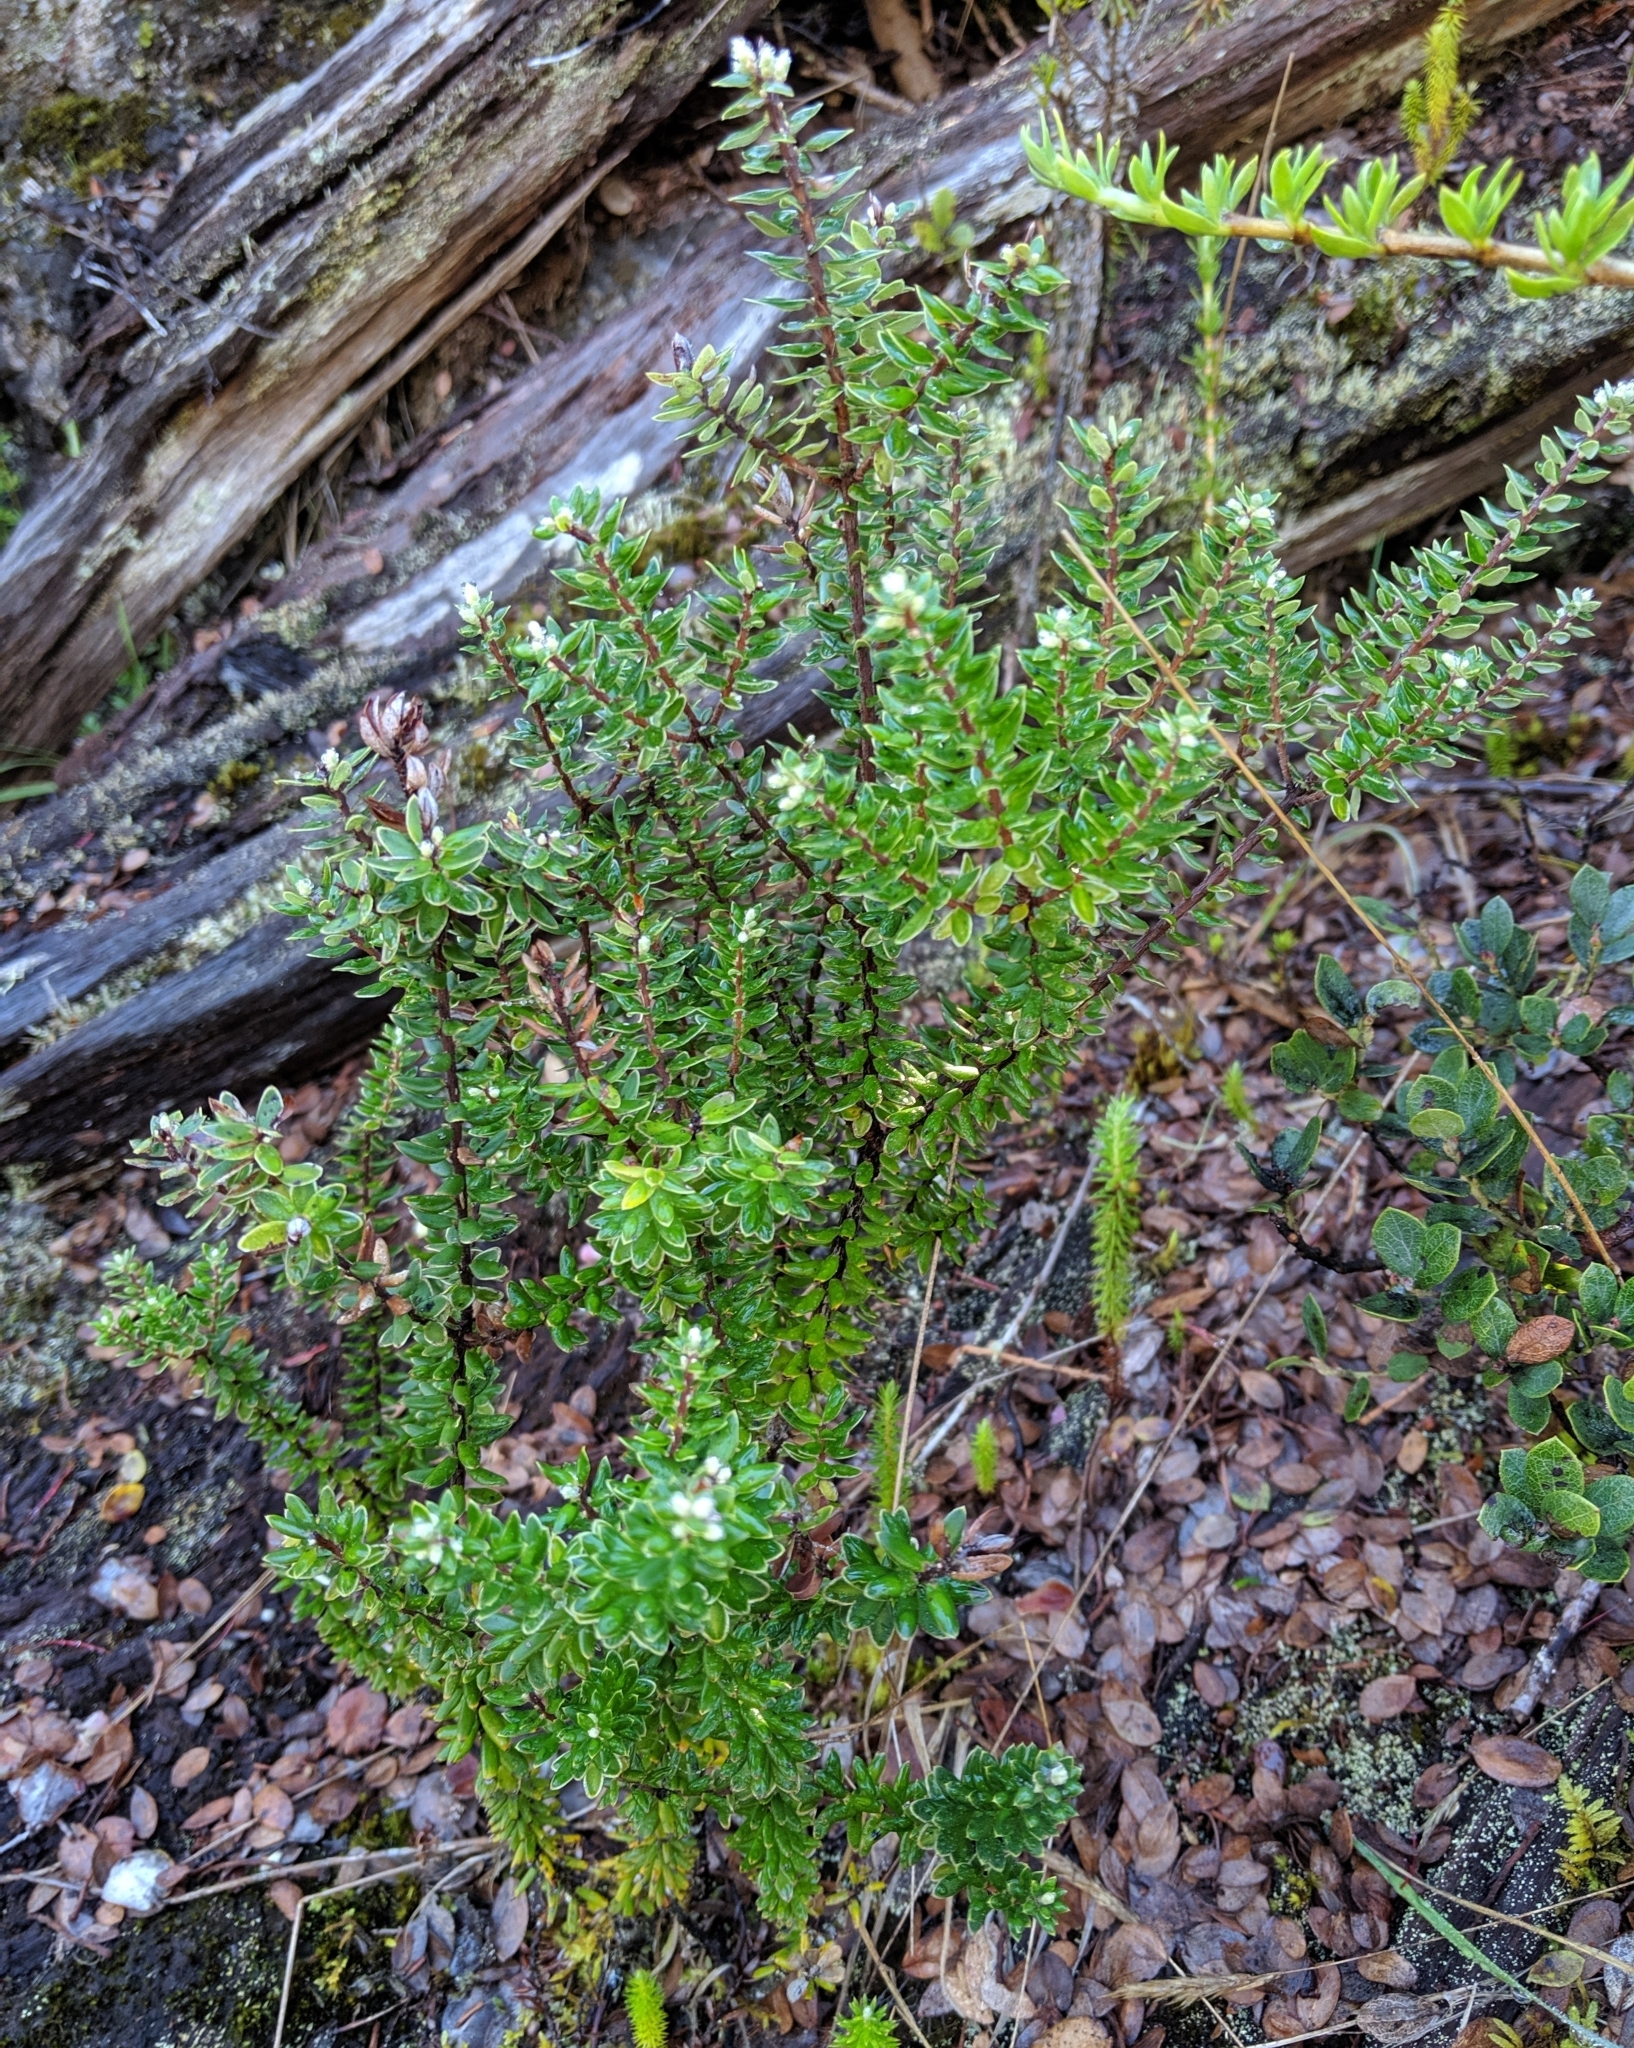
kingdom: Plantae
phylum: Tracheophyta
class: Magnoliopsida
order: Ericales
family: Ericaceae
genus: Leptecophylla
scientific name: Leptecophylla tameiameiae
